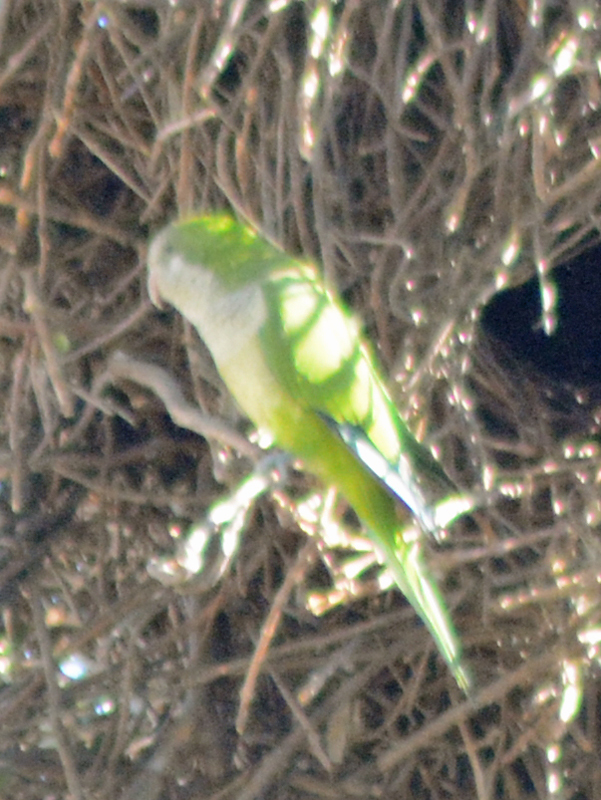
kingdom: Animalia
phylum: Chordata
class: Aves
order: Psittaciformes
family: Psittacidae
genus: Myiopsitta
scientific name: Myiopsitta monachus
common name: Monk parakeet
